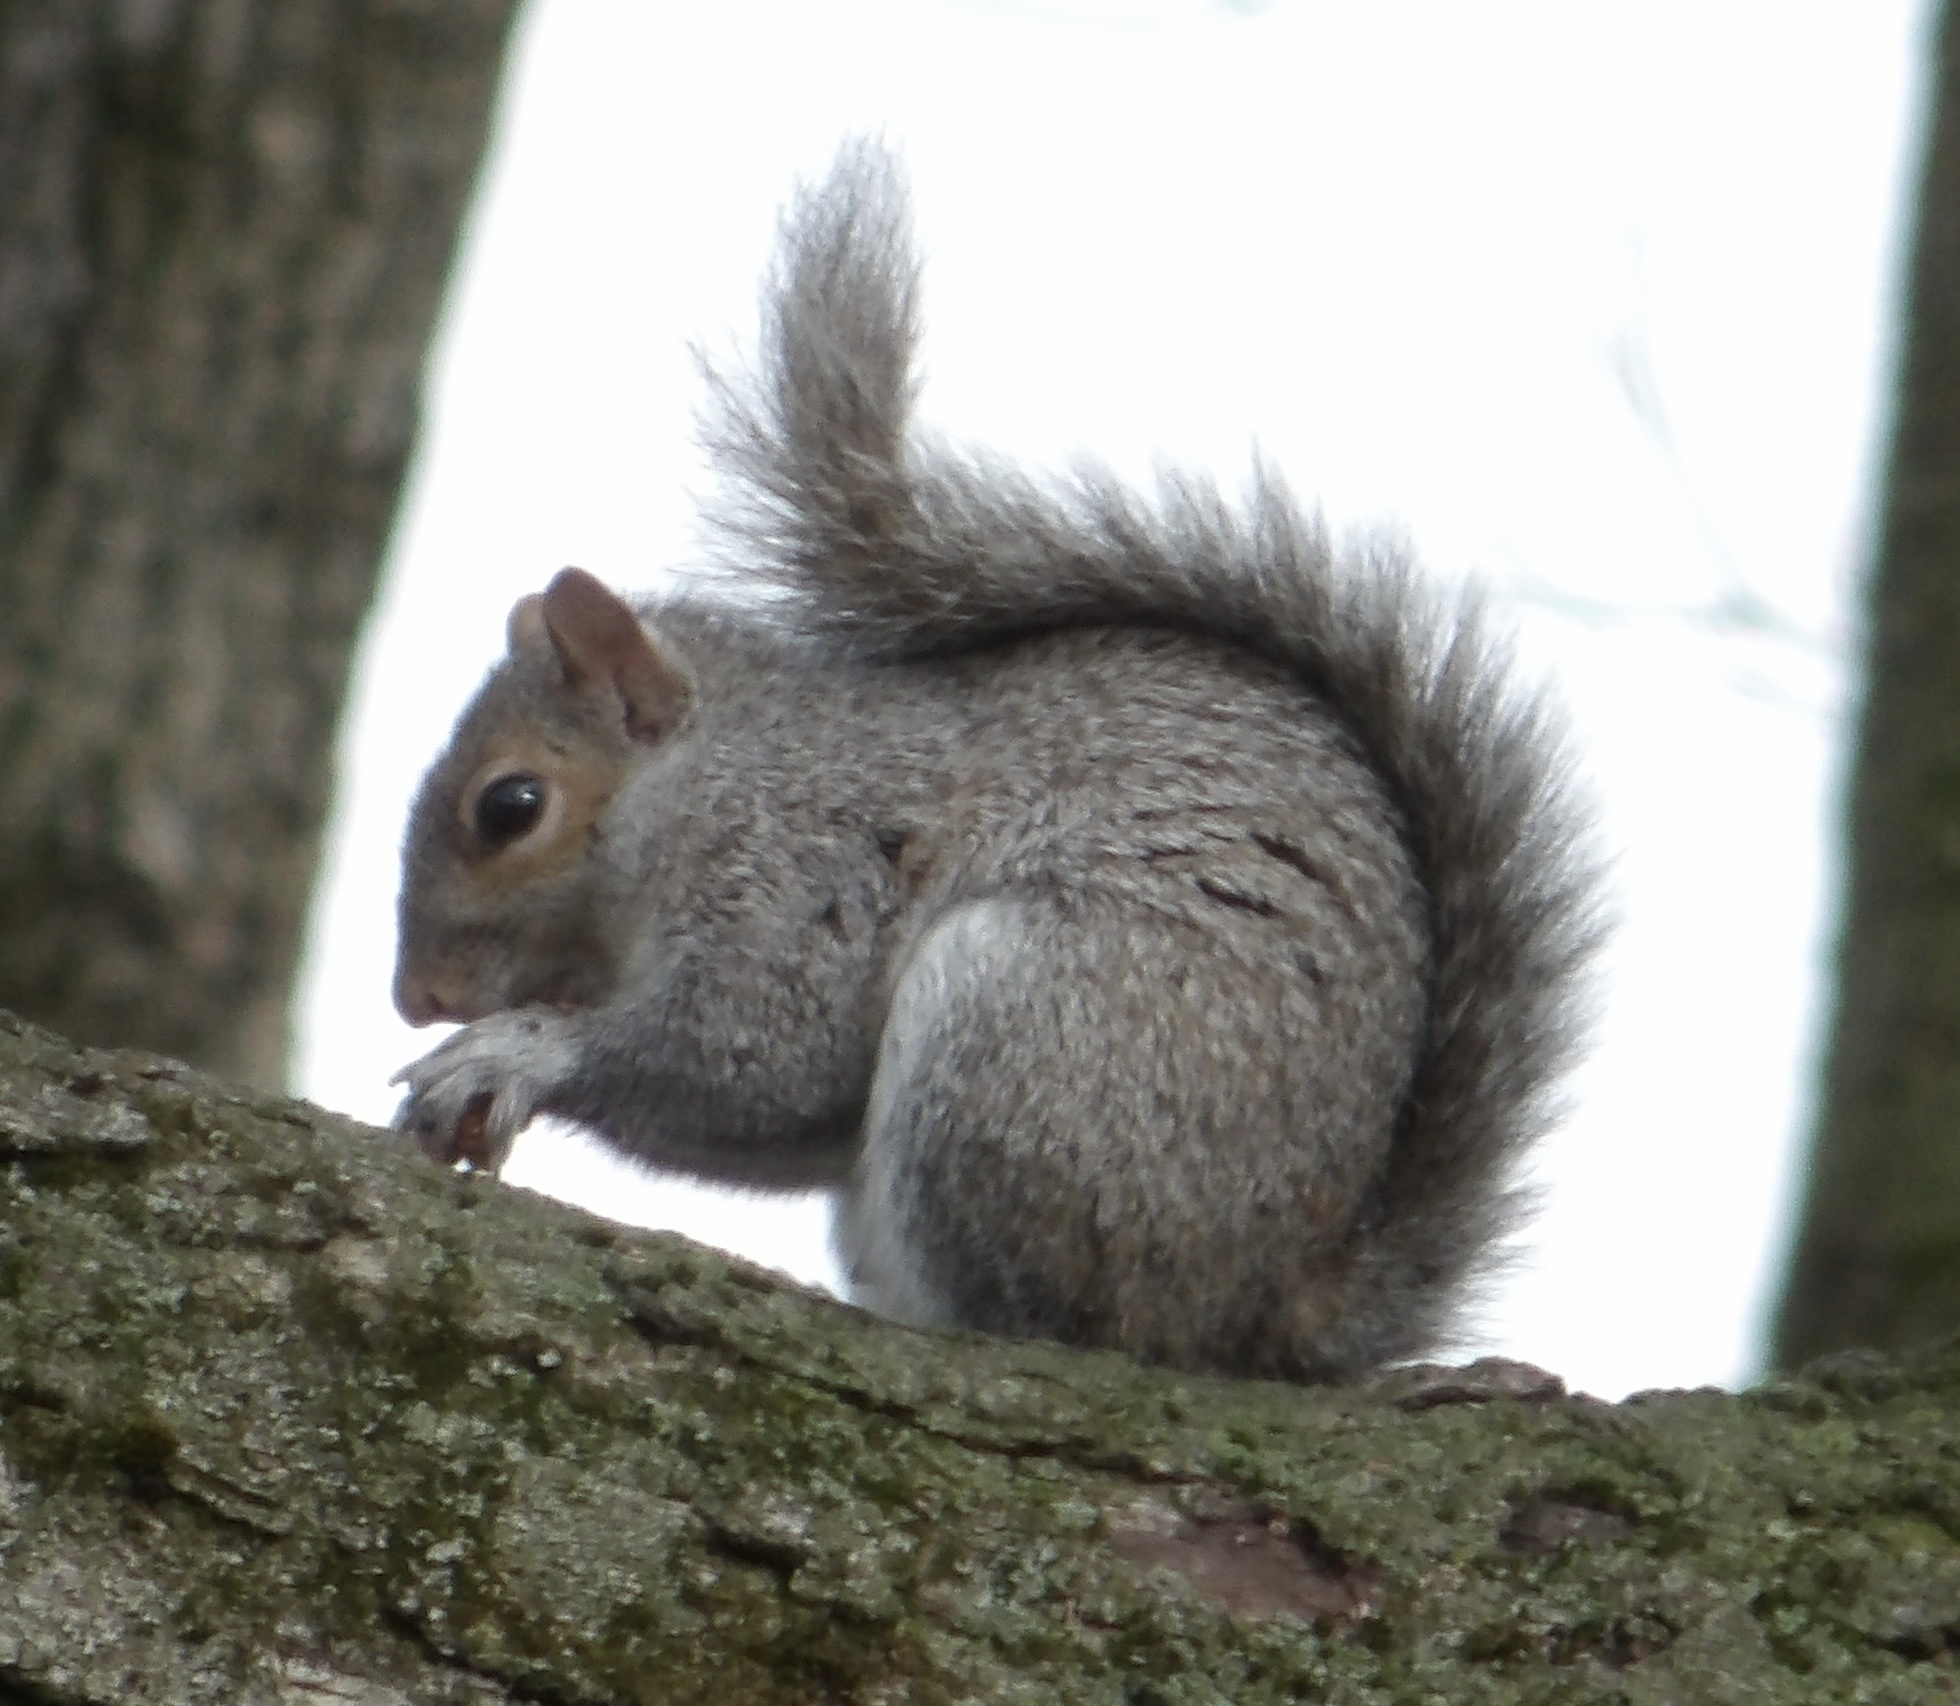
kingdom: Animalia
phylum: Chordata
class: Mammalia
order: Rodentia
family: Sciuridae
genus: Sciurus
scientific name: Sciurus carolinensis
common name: Eastern gray squirrel
